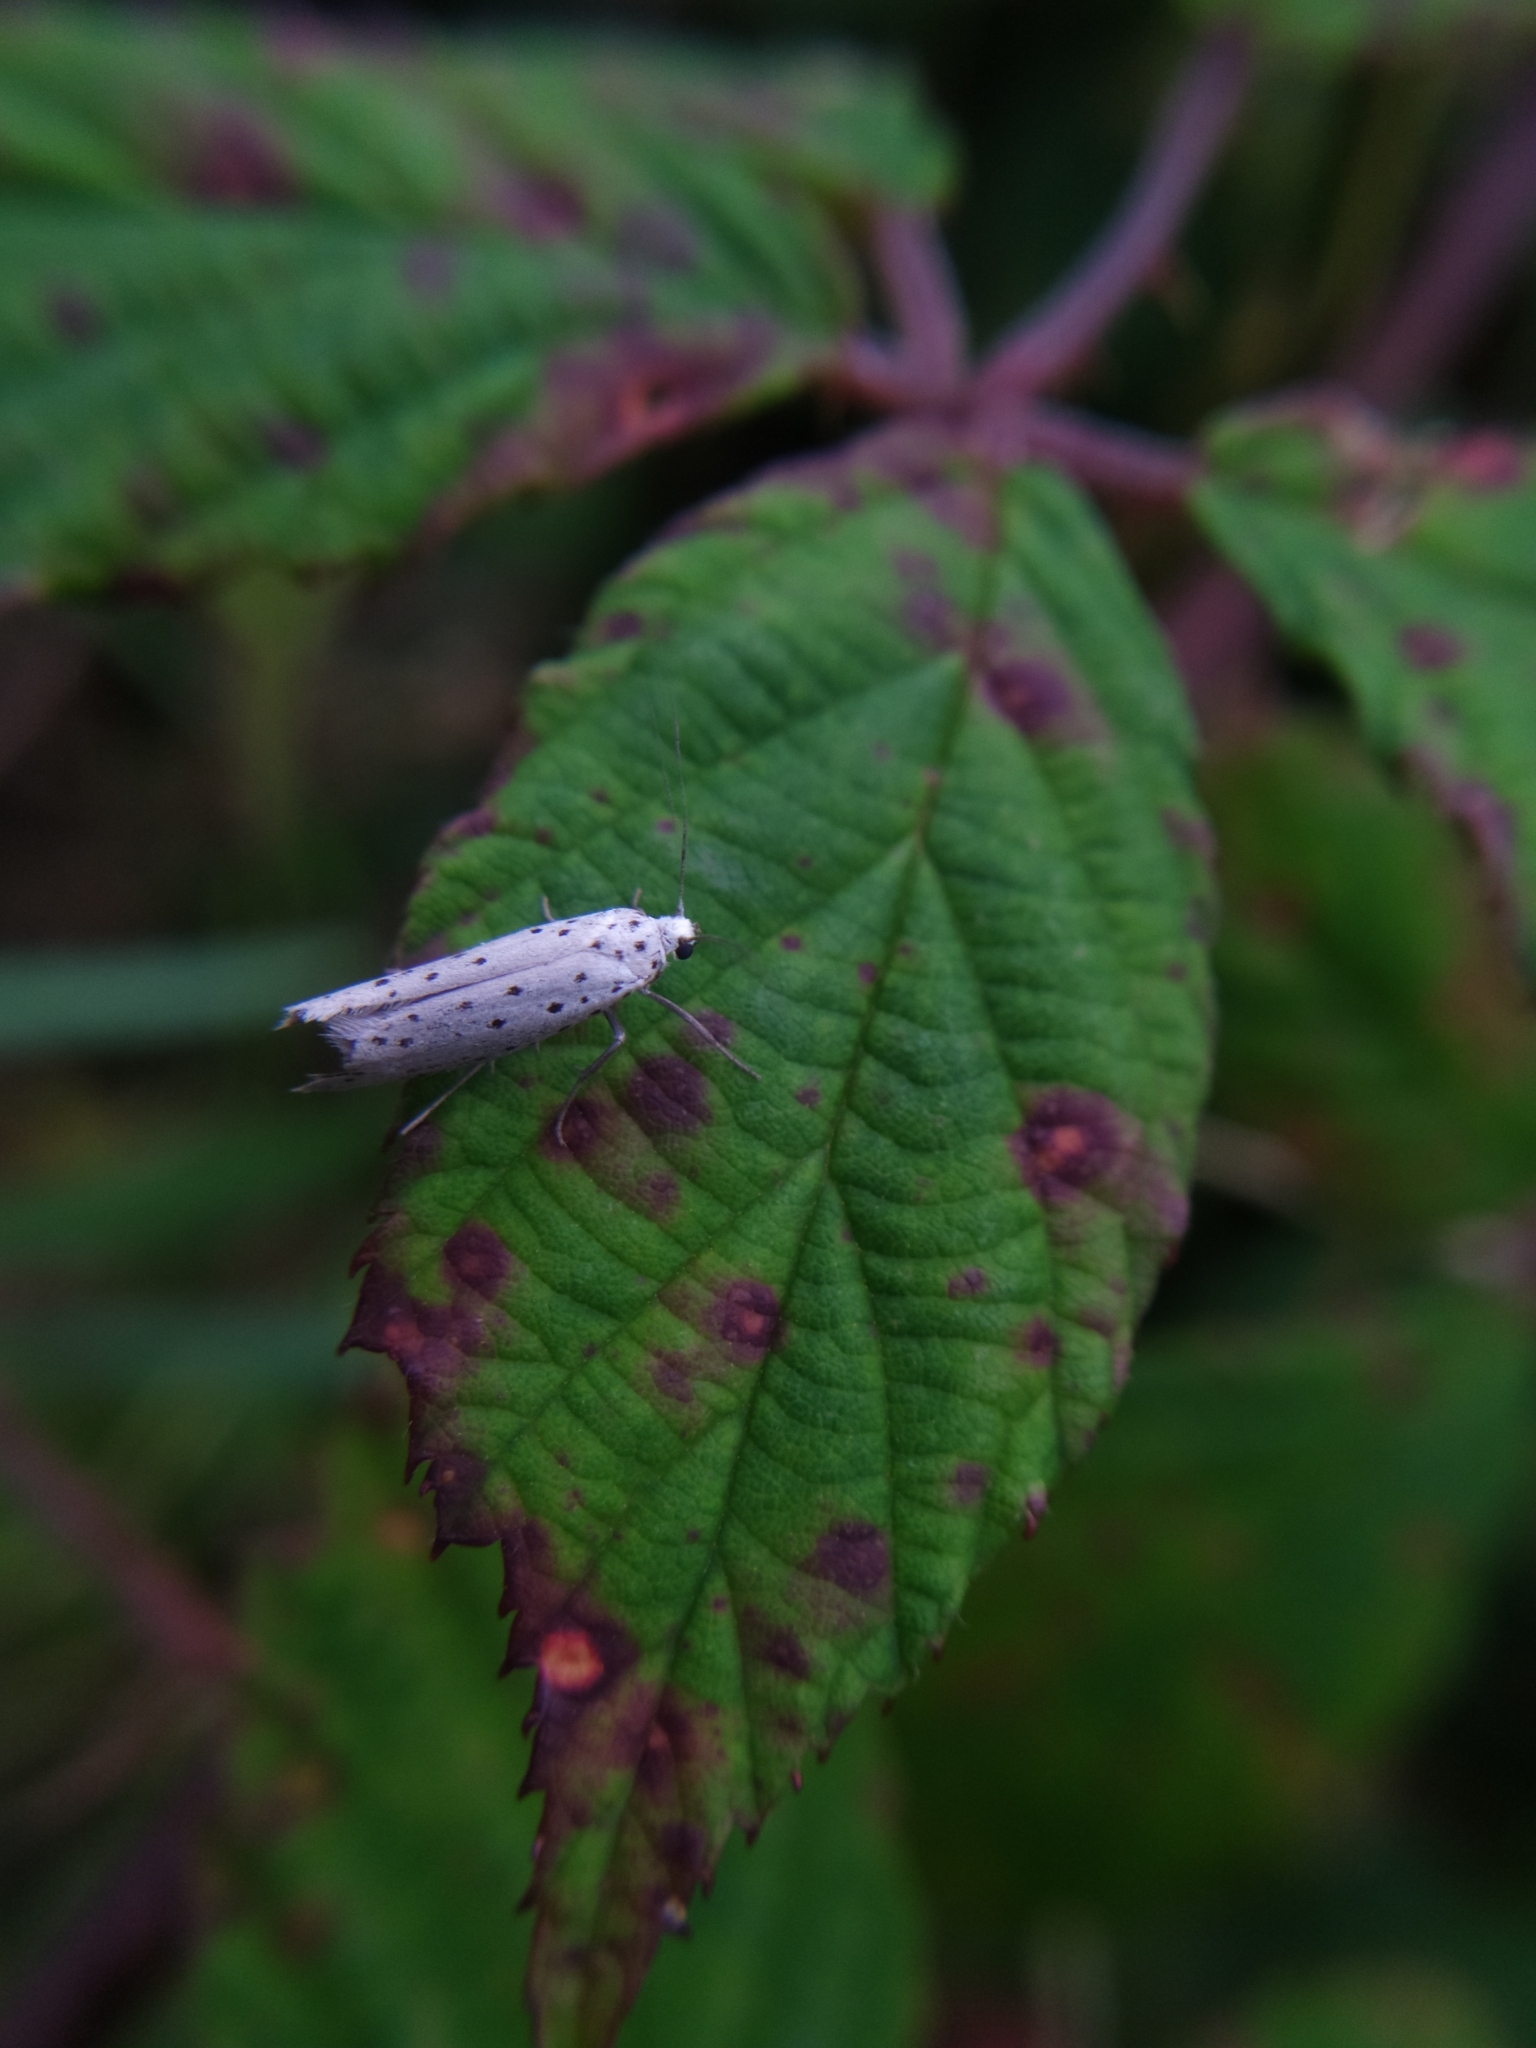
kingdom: Animalia
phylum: Arthropoda
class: Insecta
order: Lepidoptera
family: Yponomeutidae
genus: Yponomeuta
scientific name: Yponomeuta
